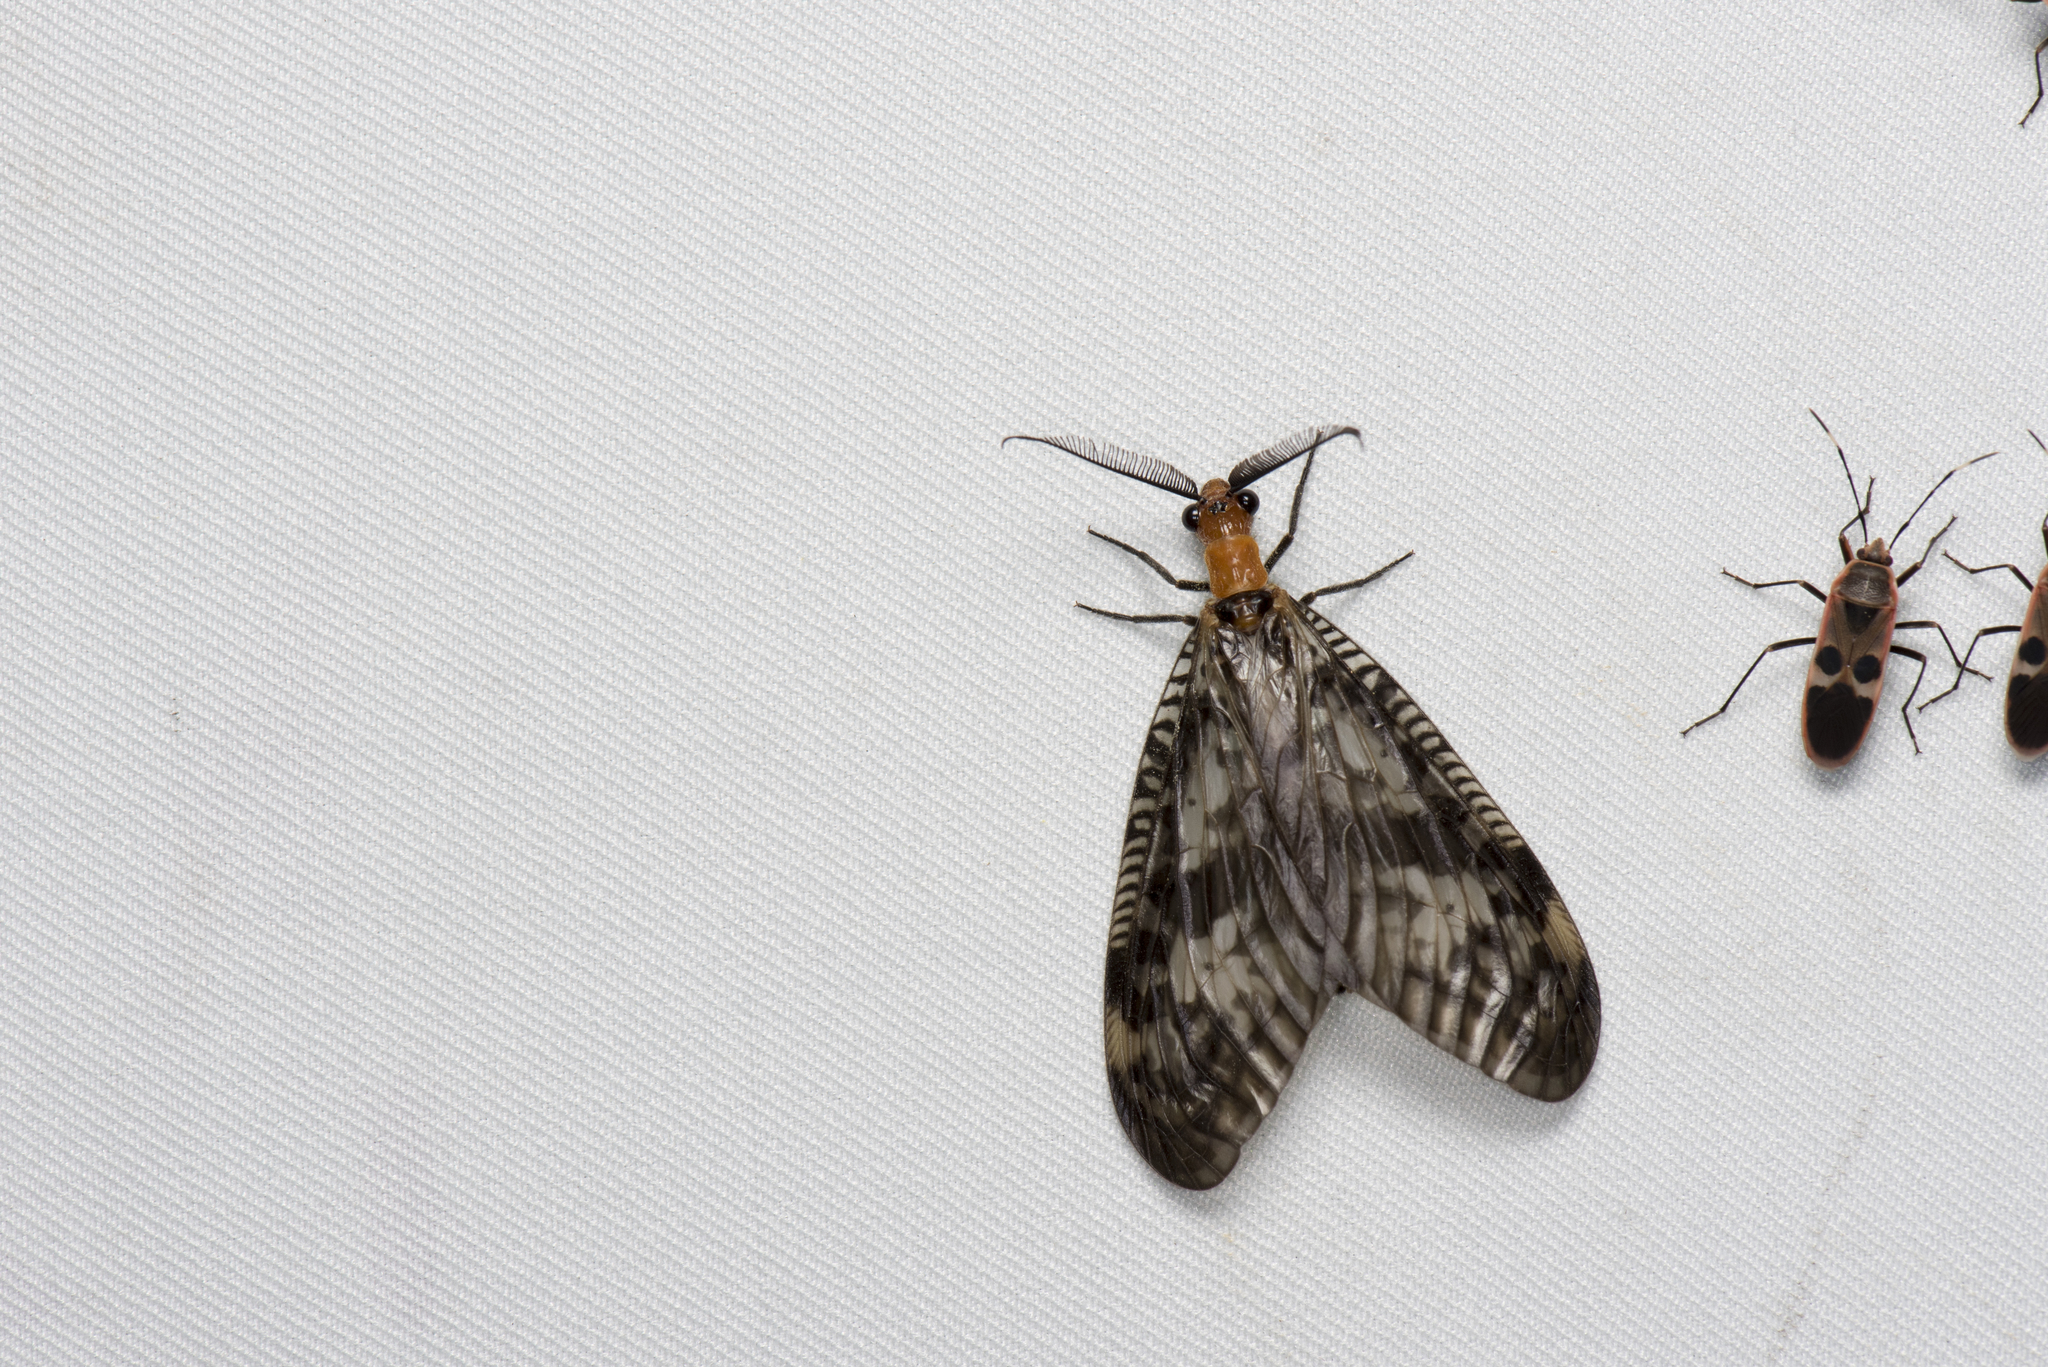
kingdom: Animalia
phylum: Arthropoda
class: Insecta
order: Megaloptera
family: Corydalidae
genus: Neochauliodes
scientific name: Neochauliodes formosanus
